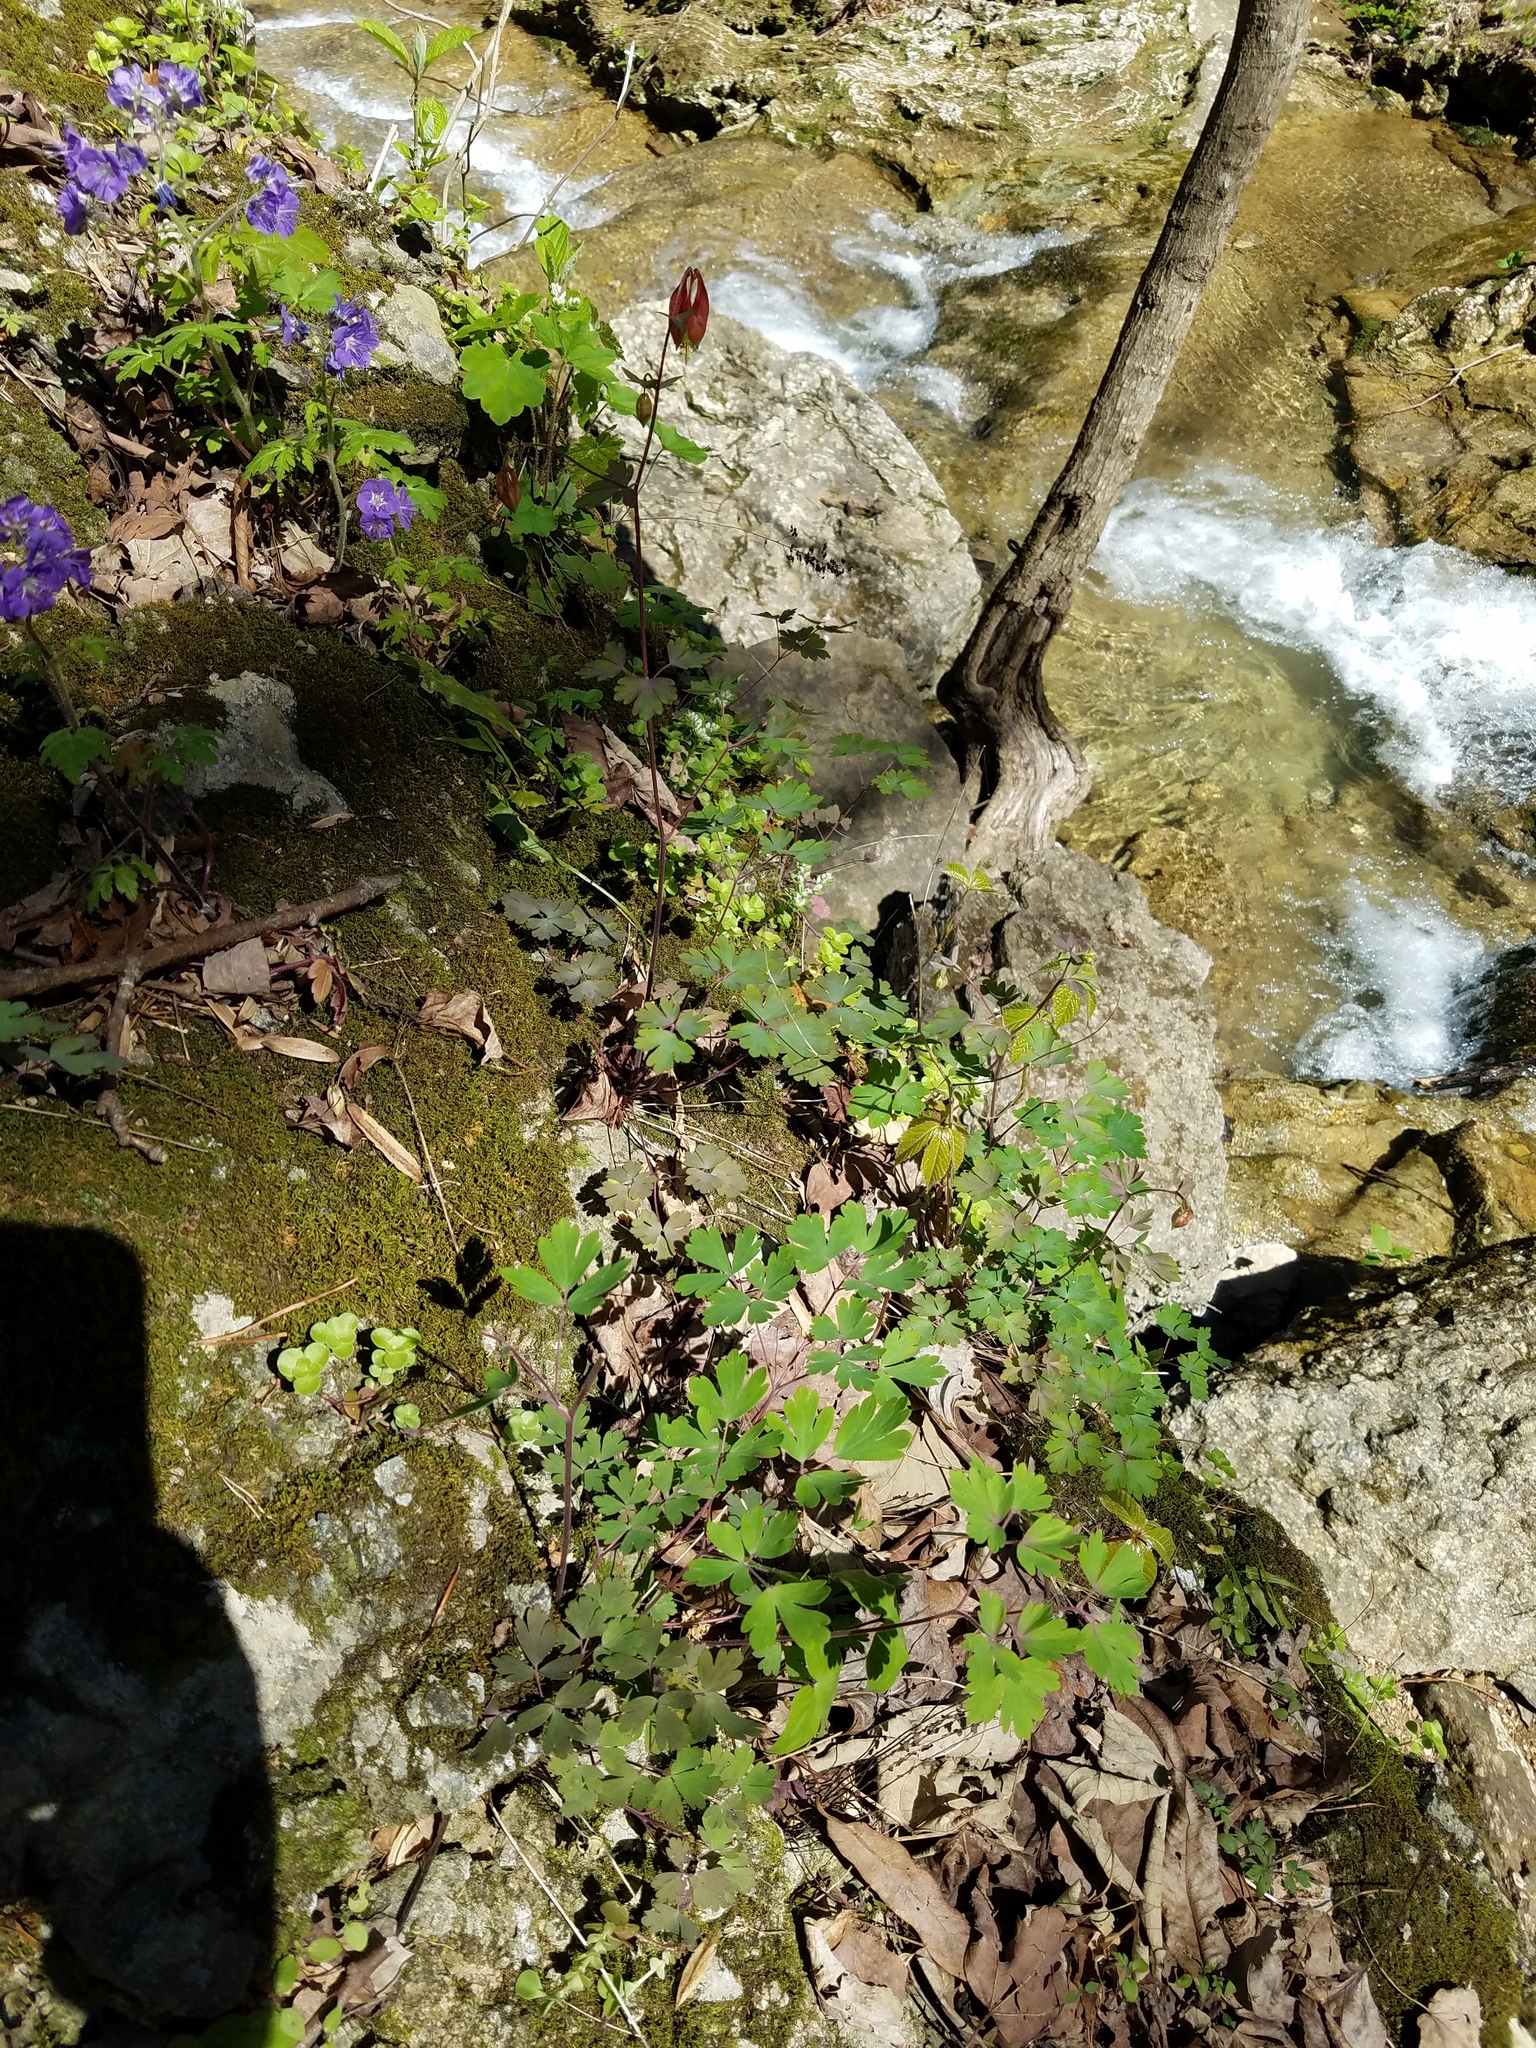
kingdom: Plantae
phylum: Tracheophyta
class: Magnoliopsida
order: Ranunculales
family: Ranunculaceae
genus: Aquilegia
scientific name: Aquilegia canadensis
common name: American columbine
